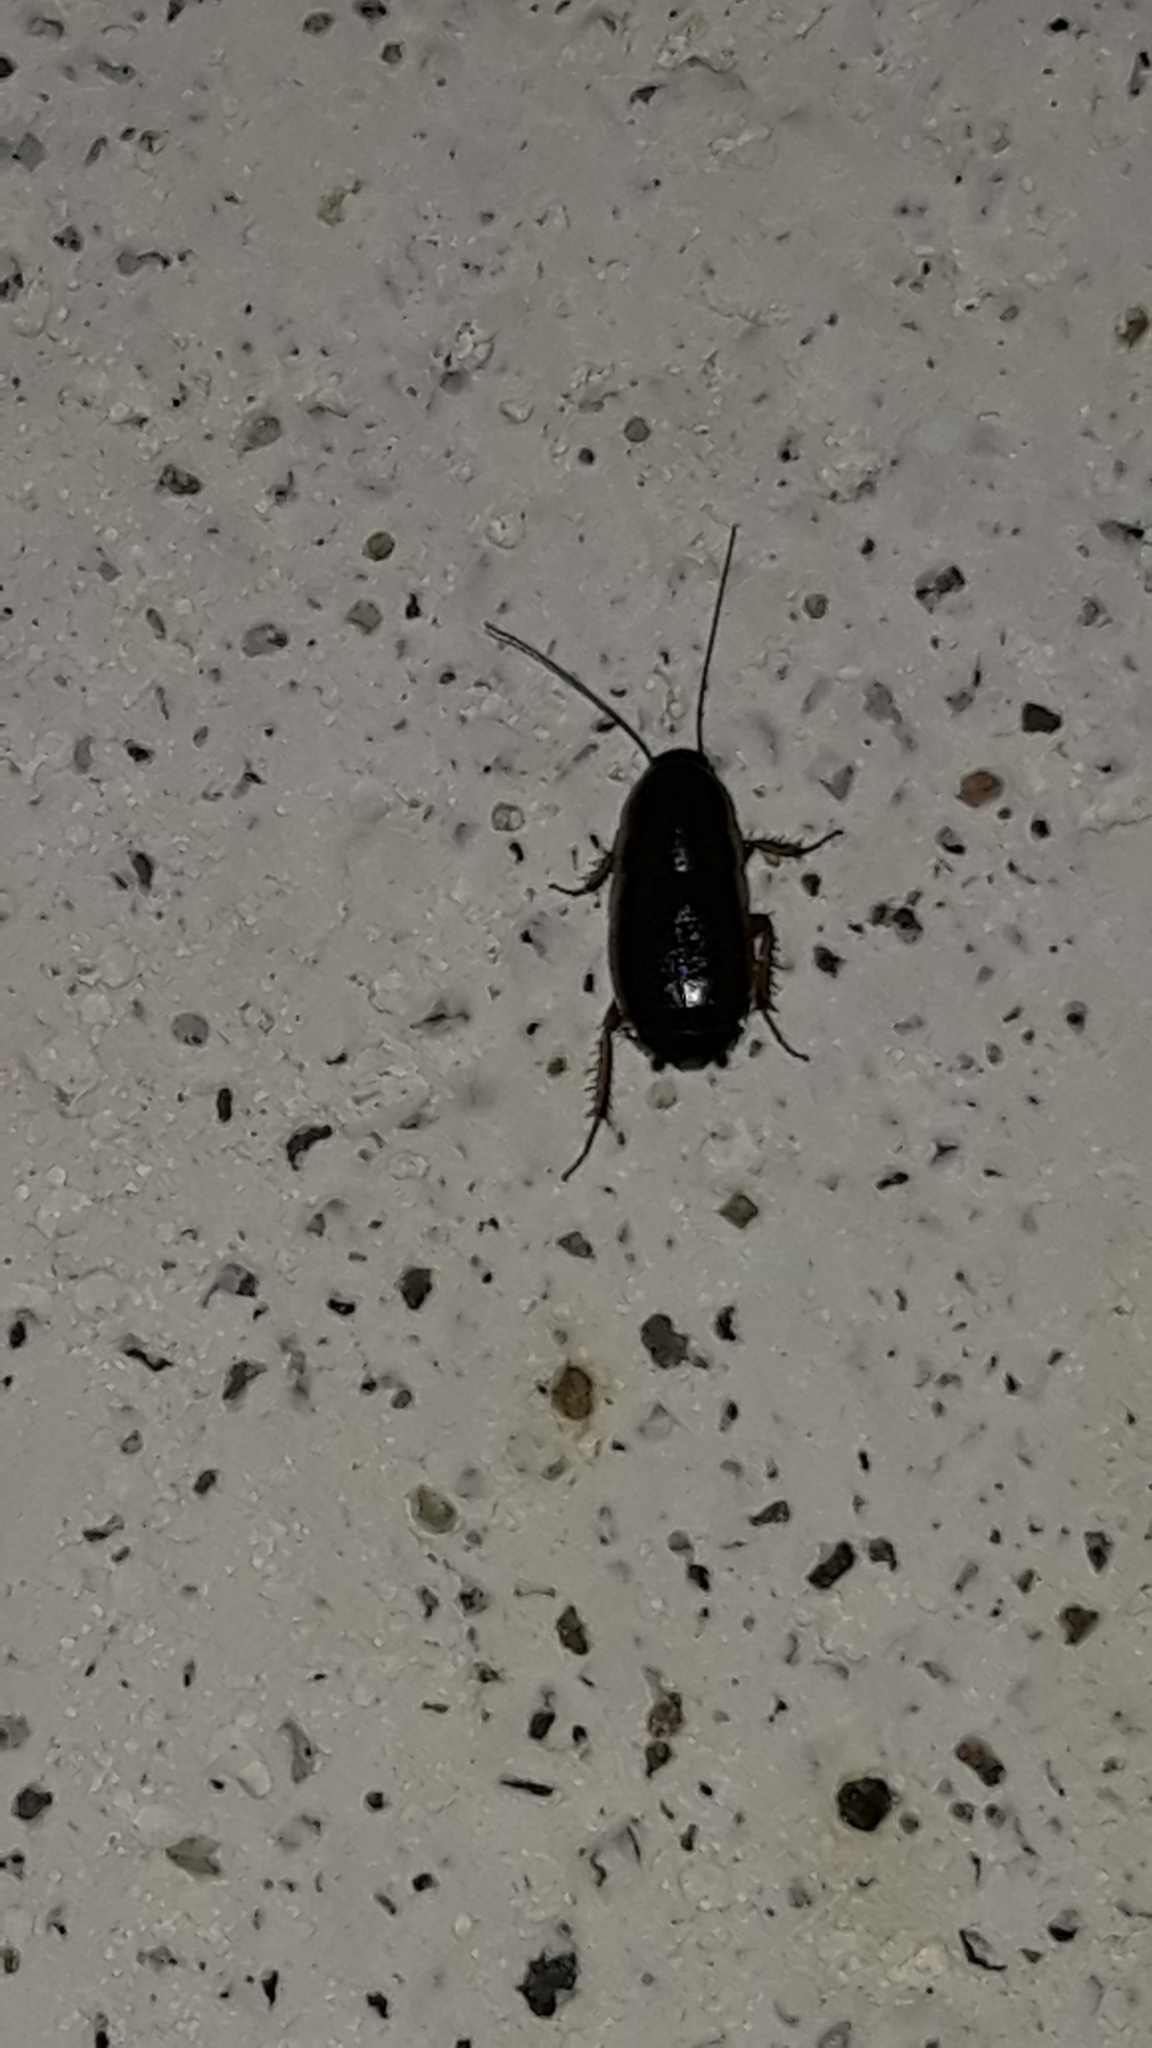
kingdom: Animalia
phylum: Arthropoda
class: Insecta
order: Blattodea
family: Ectobiidae
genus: Loboptera
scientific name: Loboptera decipiens
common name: Lobe-winged cockroach
